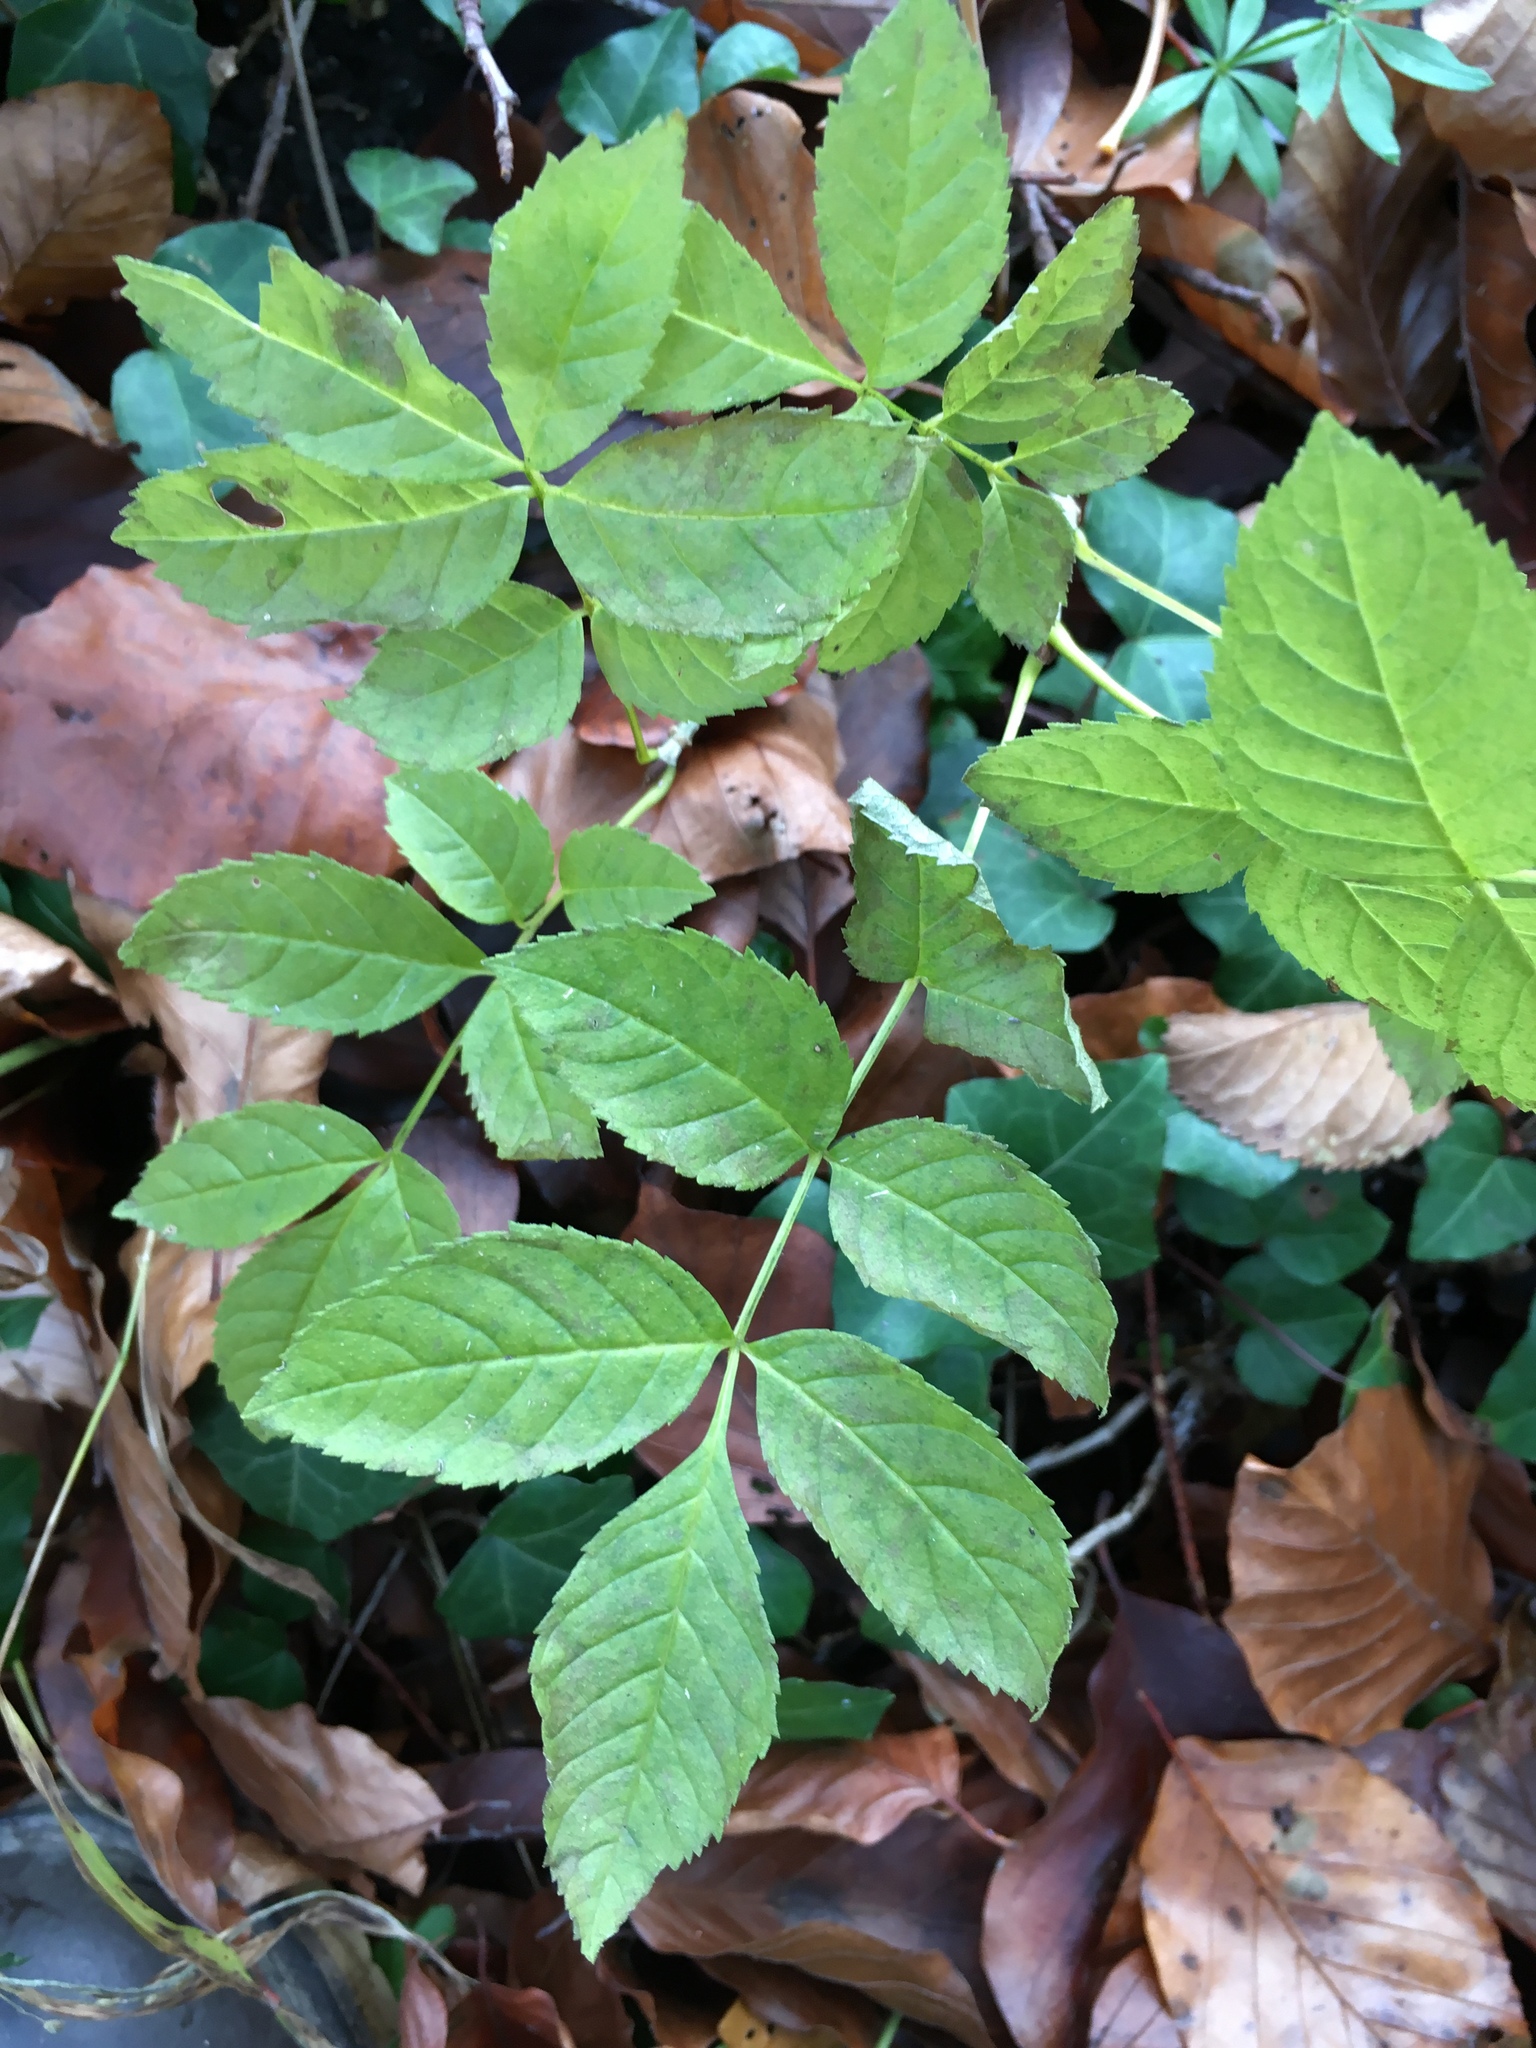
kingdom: Plantae
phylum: Tracheophyta
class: Magnoliopsida
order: Lamiales
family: Oleaceae
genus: Fraxinus
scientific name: Fraxinus excelsior
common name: European ash
